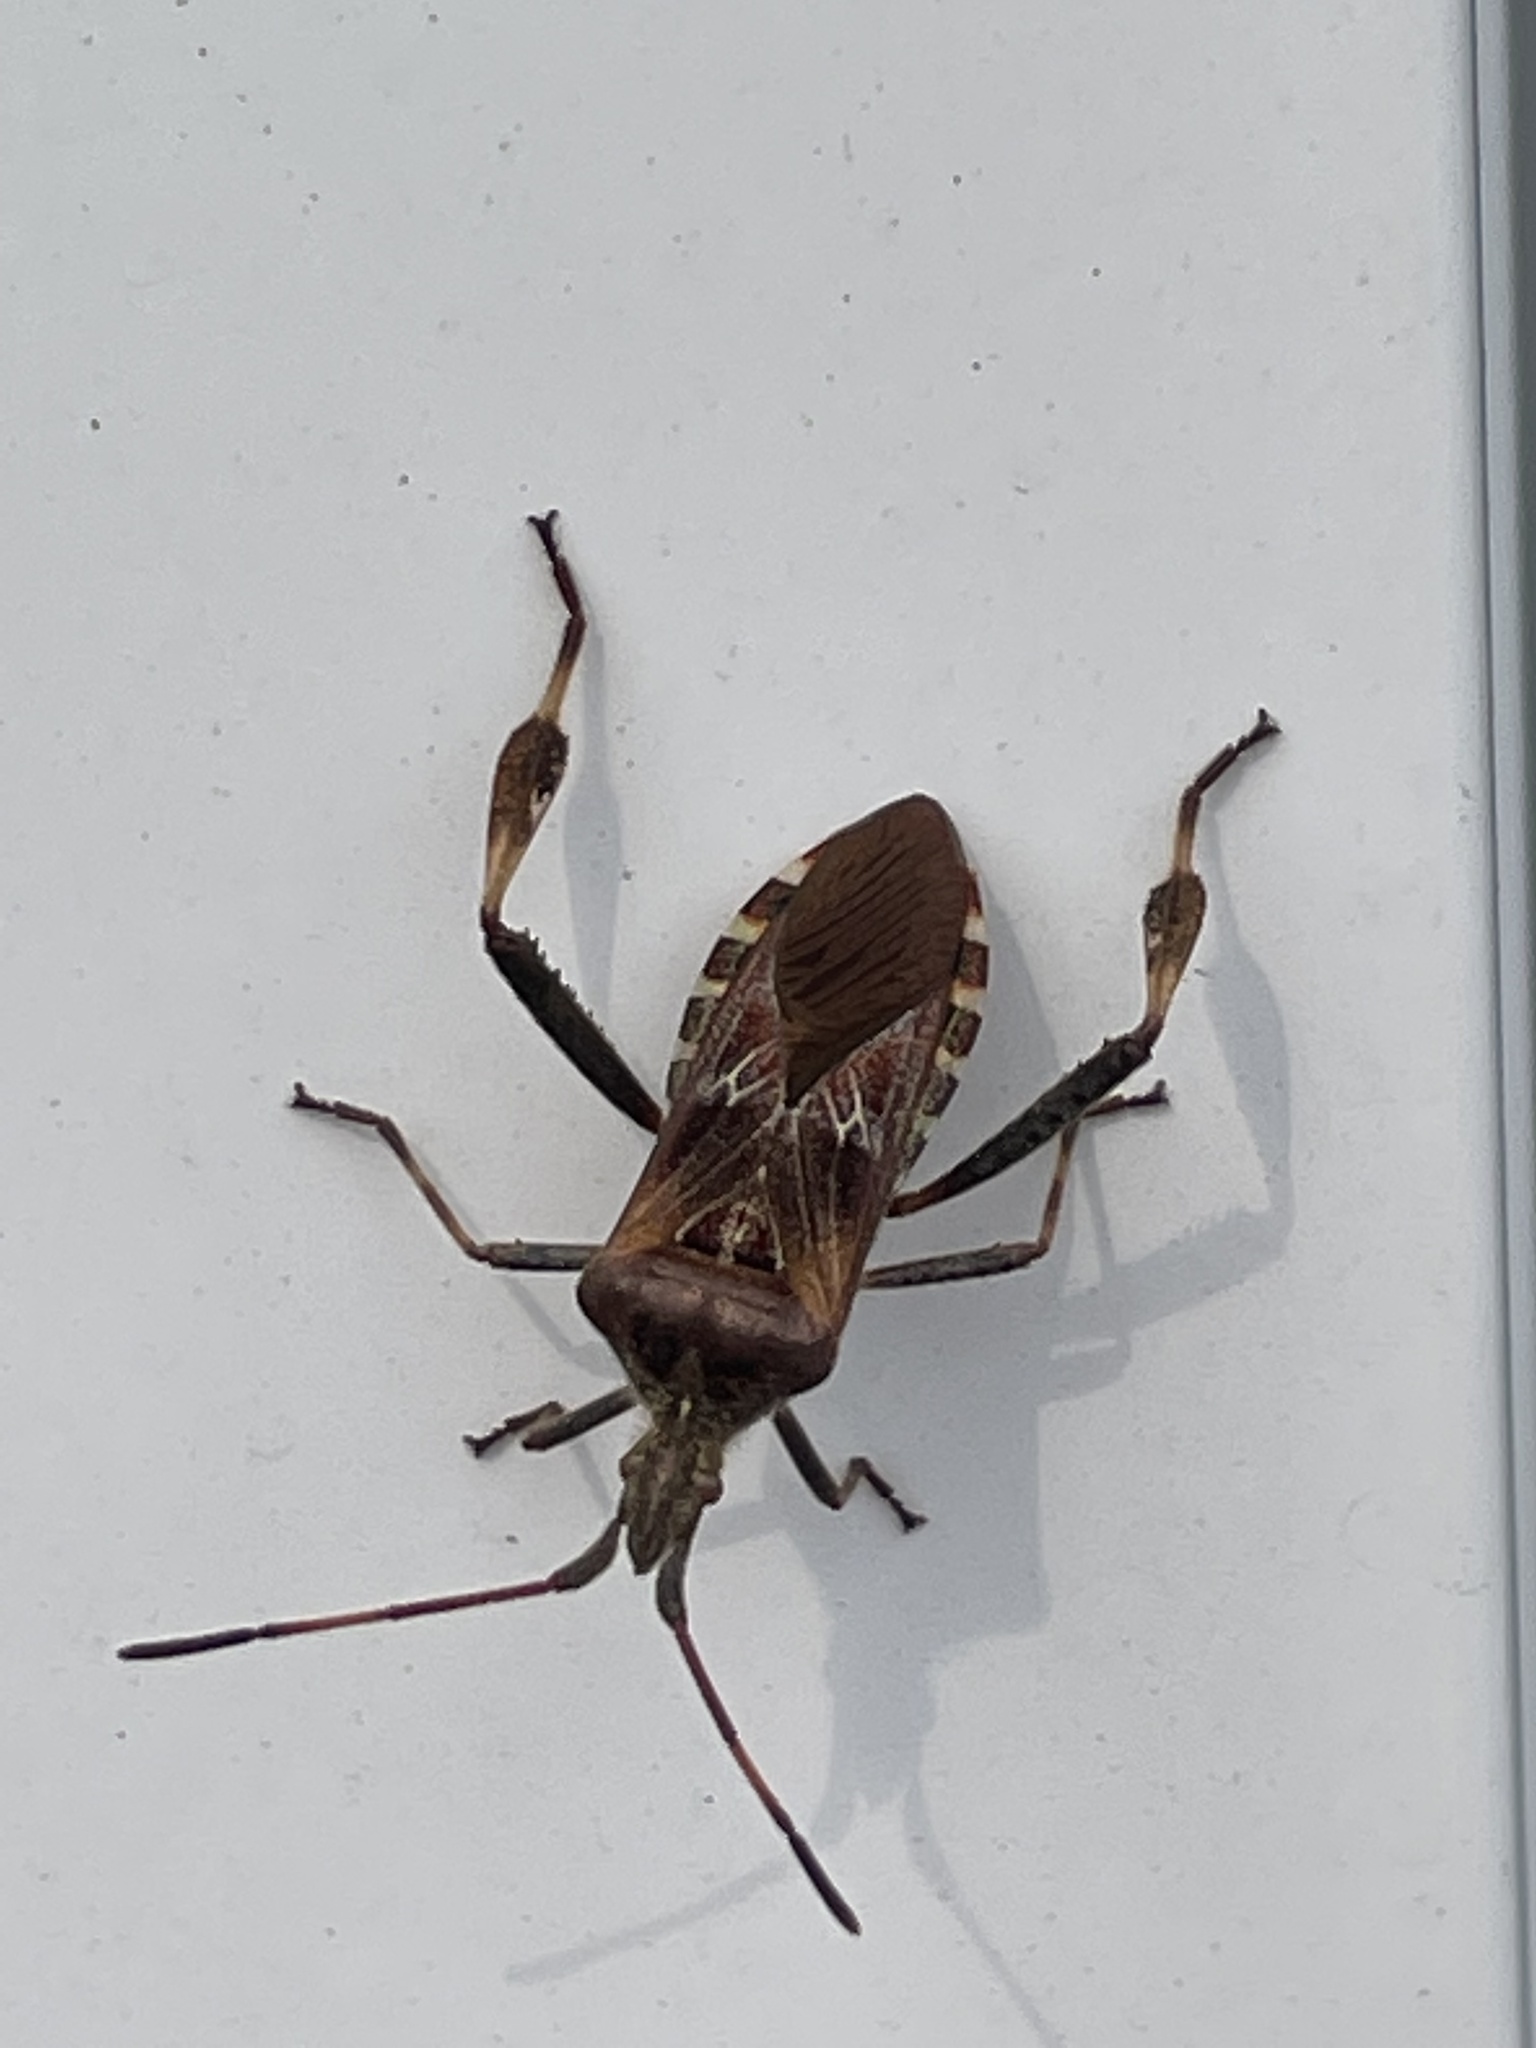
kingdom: Animalia
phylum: Arthropoda
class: Insecta
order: Hemiptera
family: Coreidae
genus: Leptoglossus
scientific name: Leptoglossus occidentalis
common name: Western conifer-seed bug
